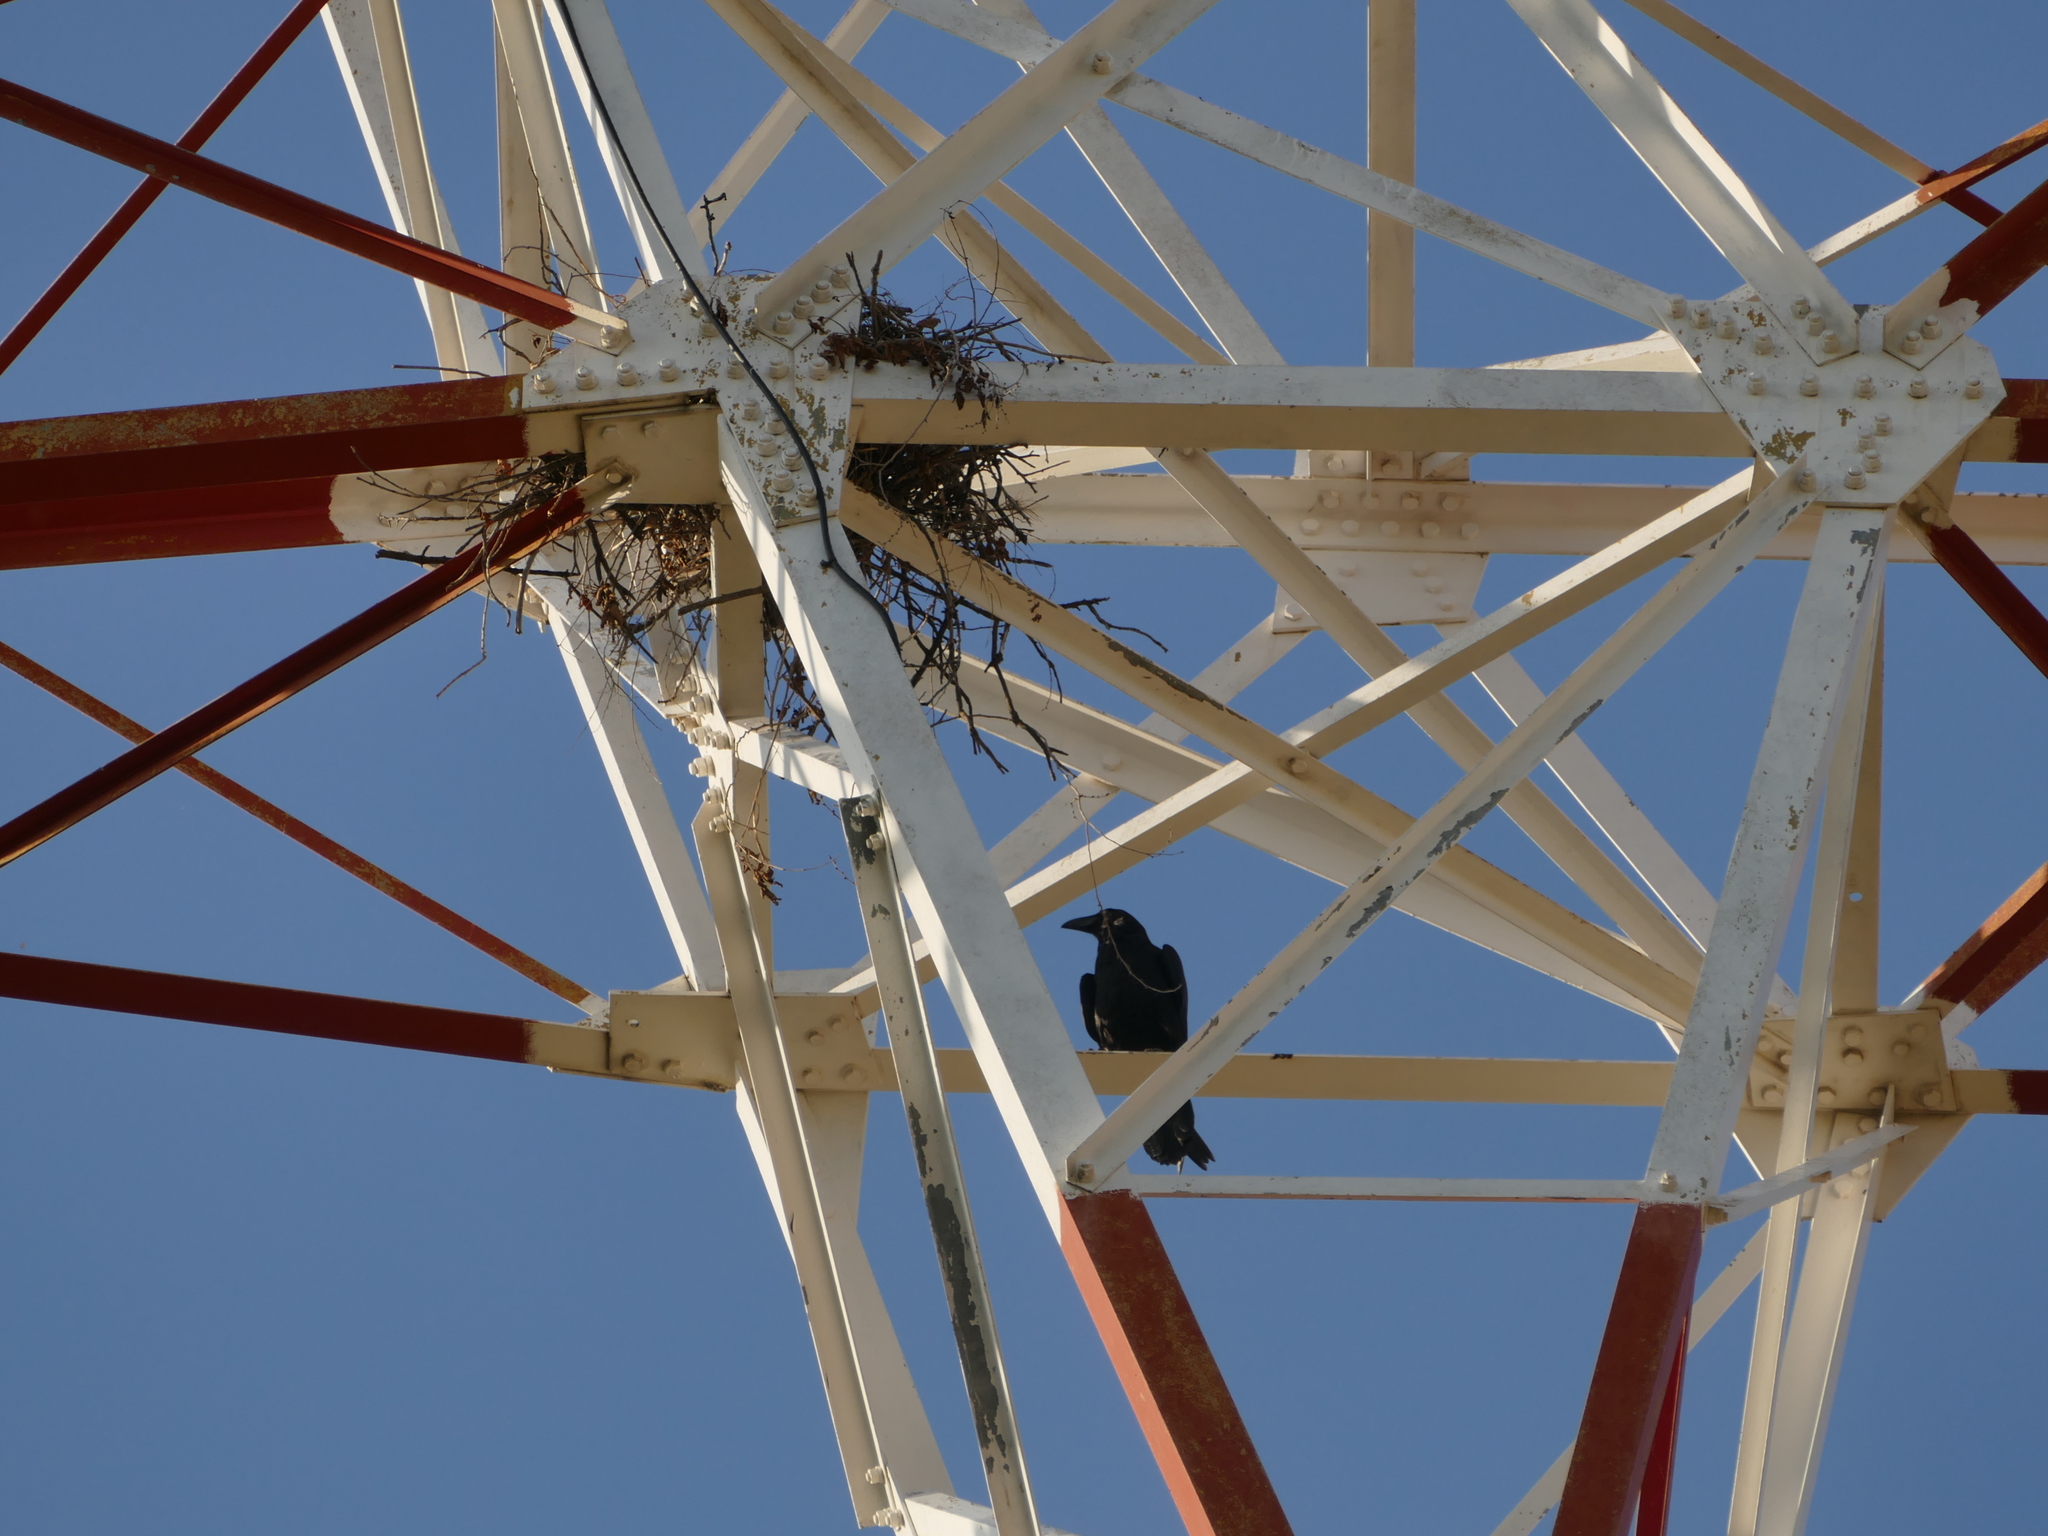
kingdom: Animalia
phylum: Chordata
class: Aves
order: Passeriformes
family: Corvidae
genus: Corvus
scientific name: Corvus corax
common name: Common raven
